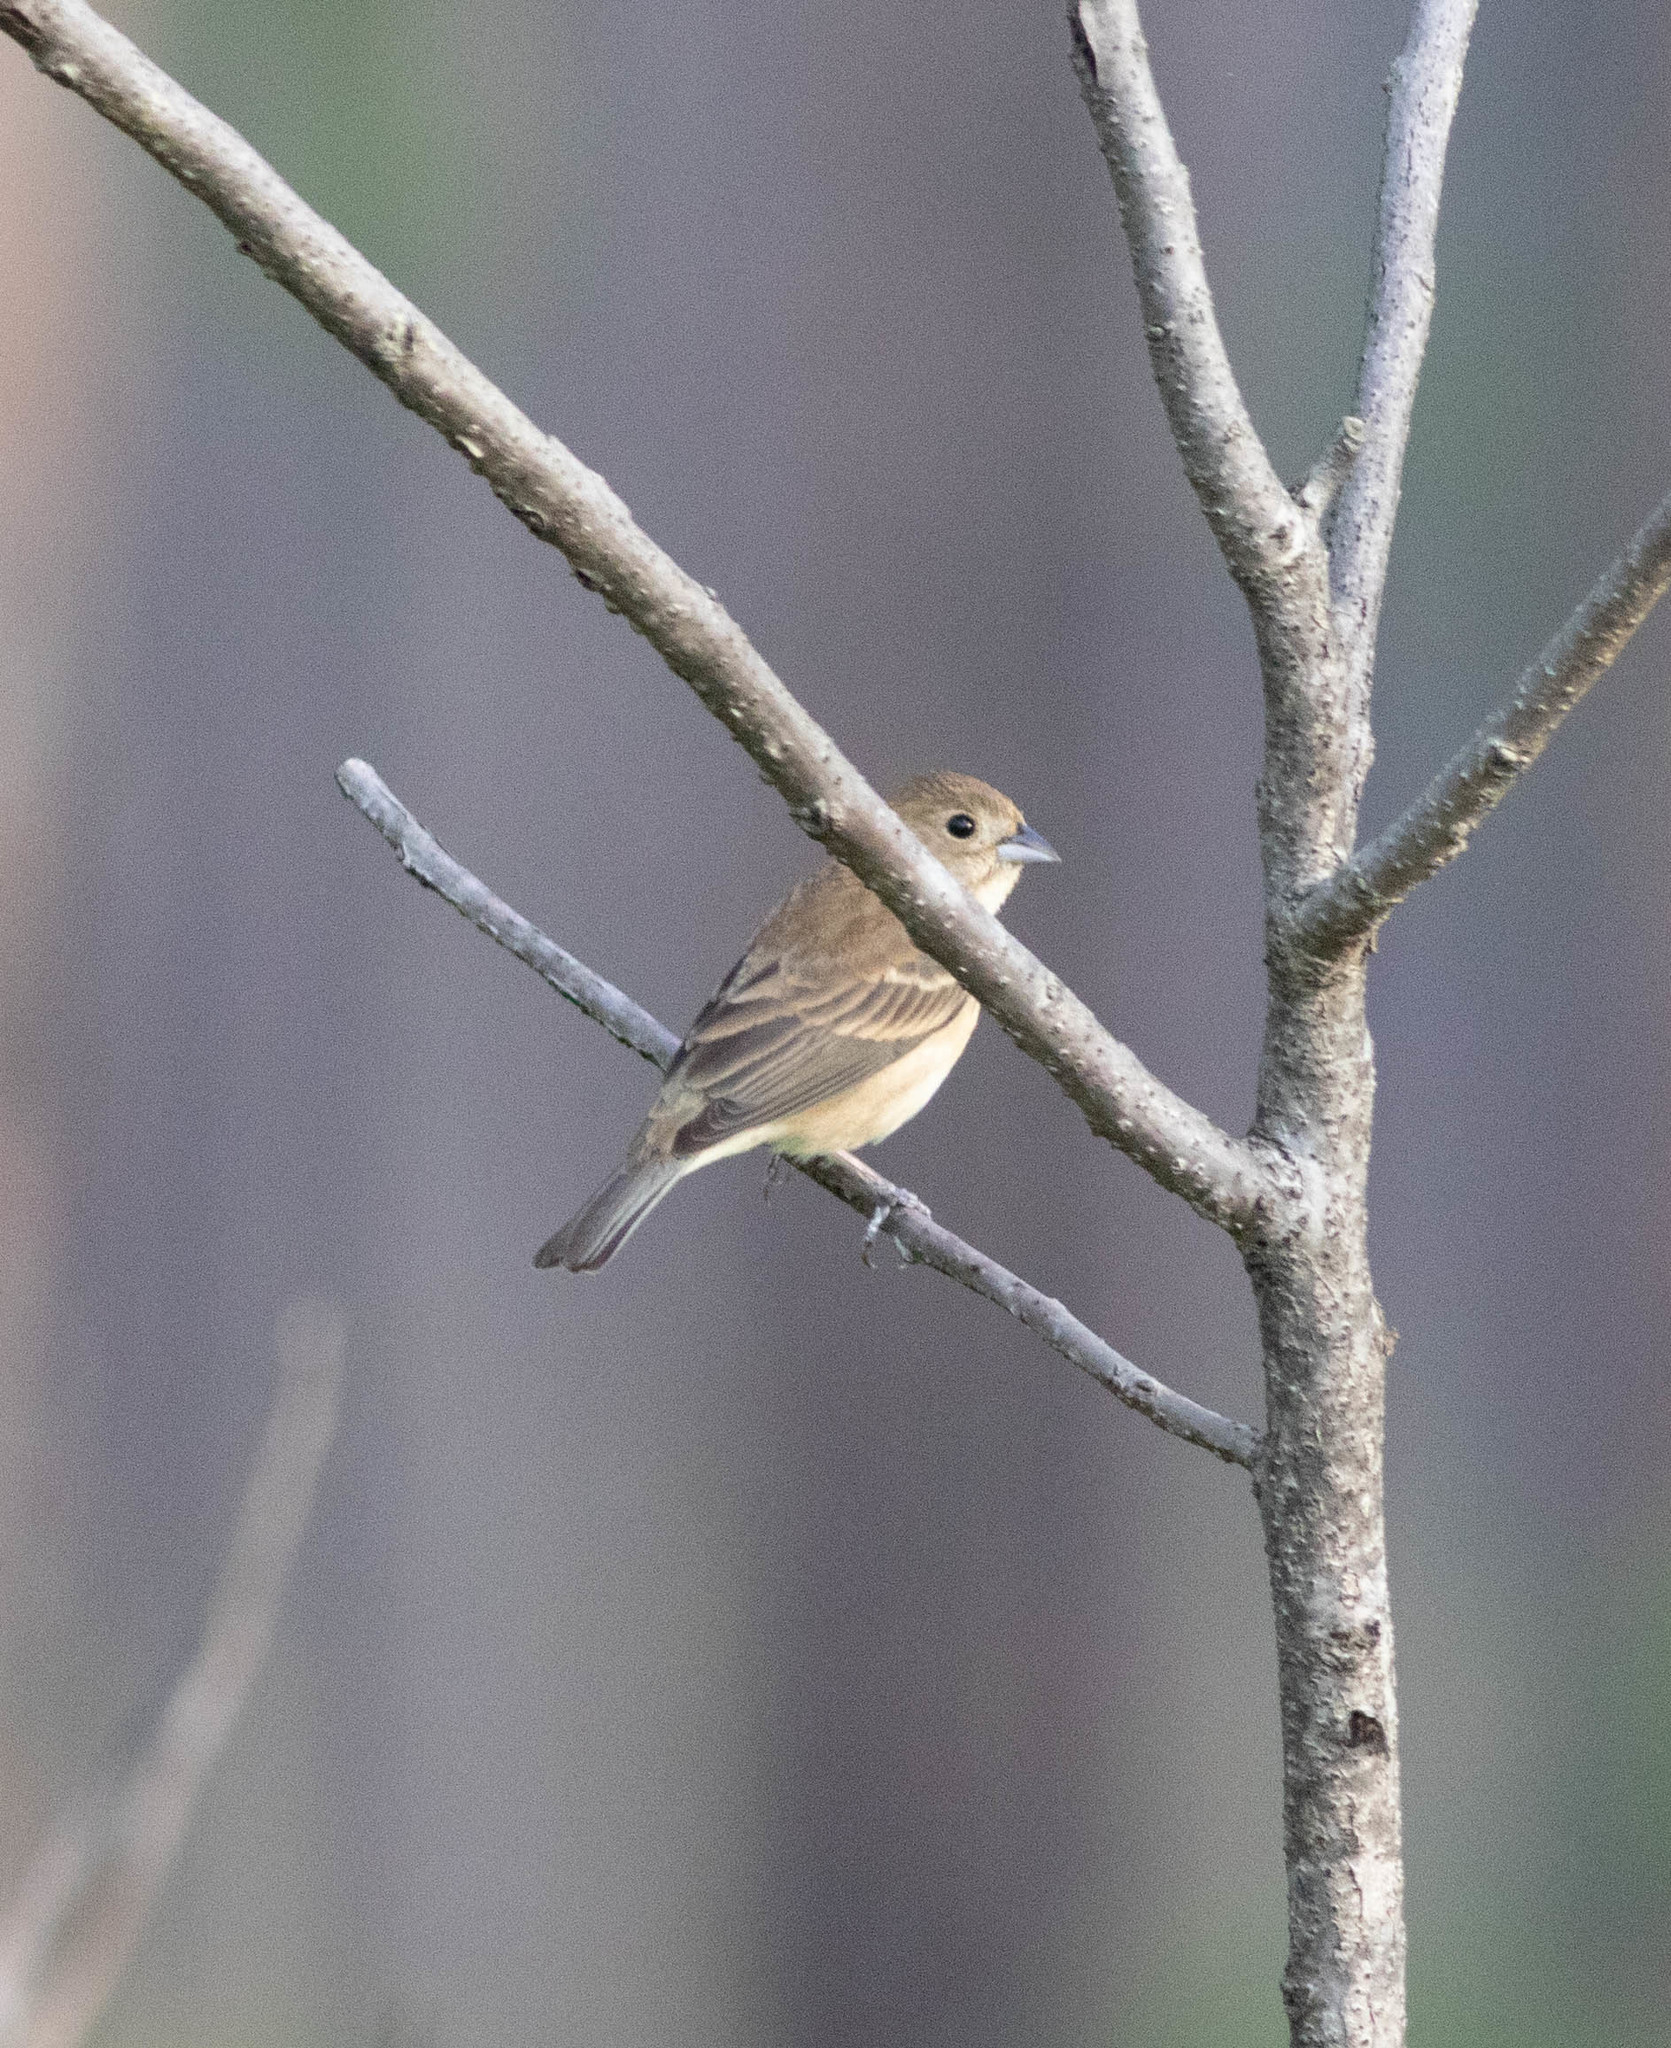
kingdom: Animalia
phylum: Chordata
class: Aves
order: Passeriformes
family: Cardinalidae
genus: Passerina
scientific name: Passerina cyanea
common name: Indigo bunting
